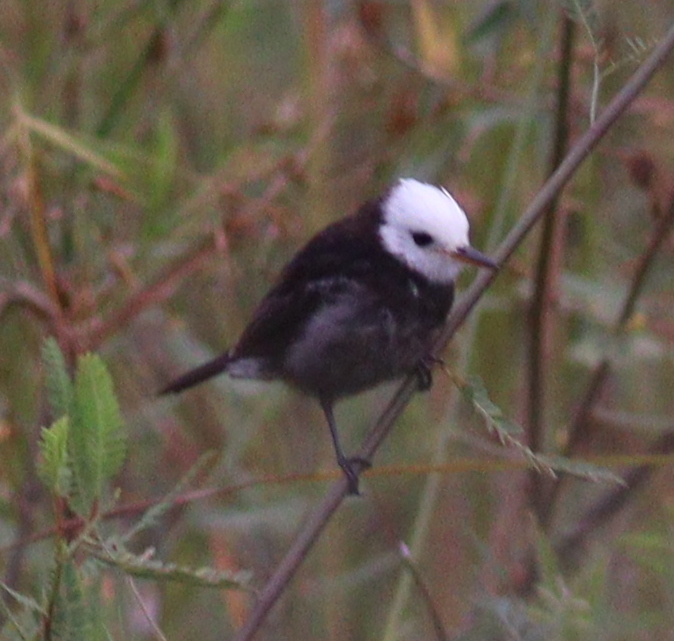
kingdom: Animalia
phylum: Chordata
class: Aves
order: Passeriformes
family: Tyrannidae
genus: Arundinicola
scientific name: Arundinicola leucocephala
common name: White-headed marsh tyrant
